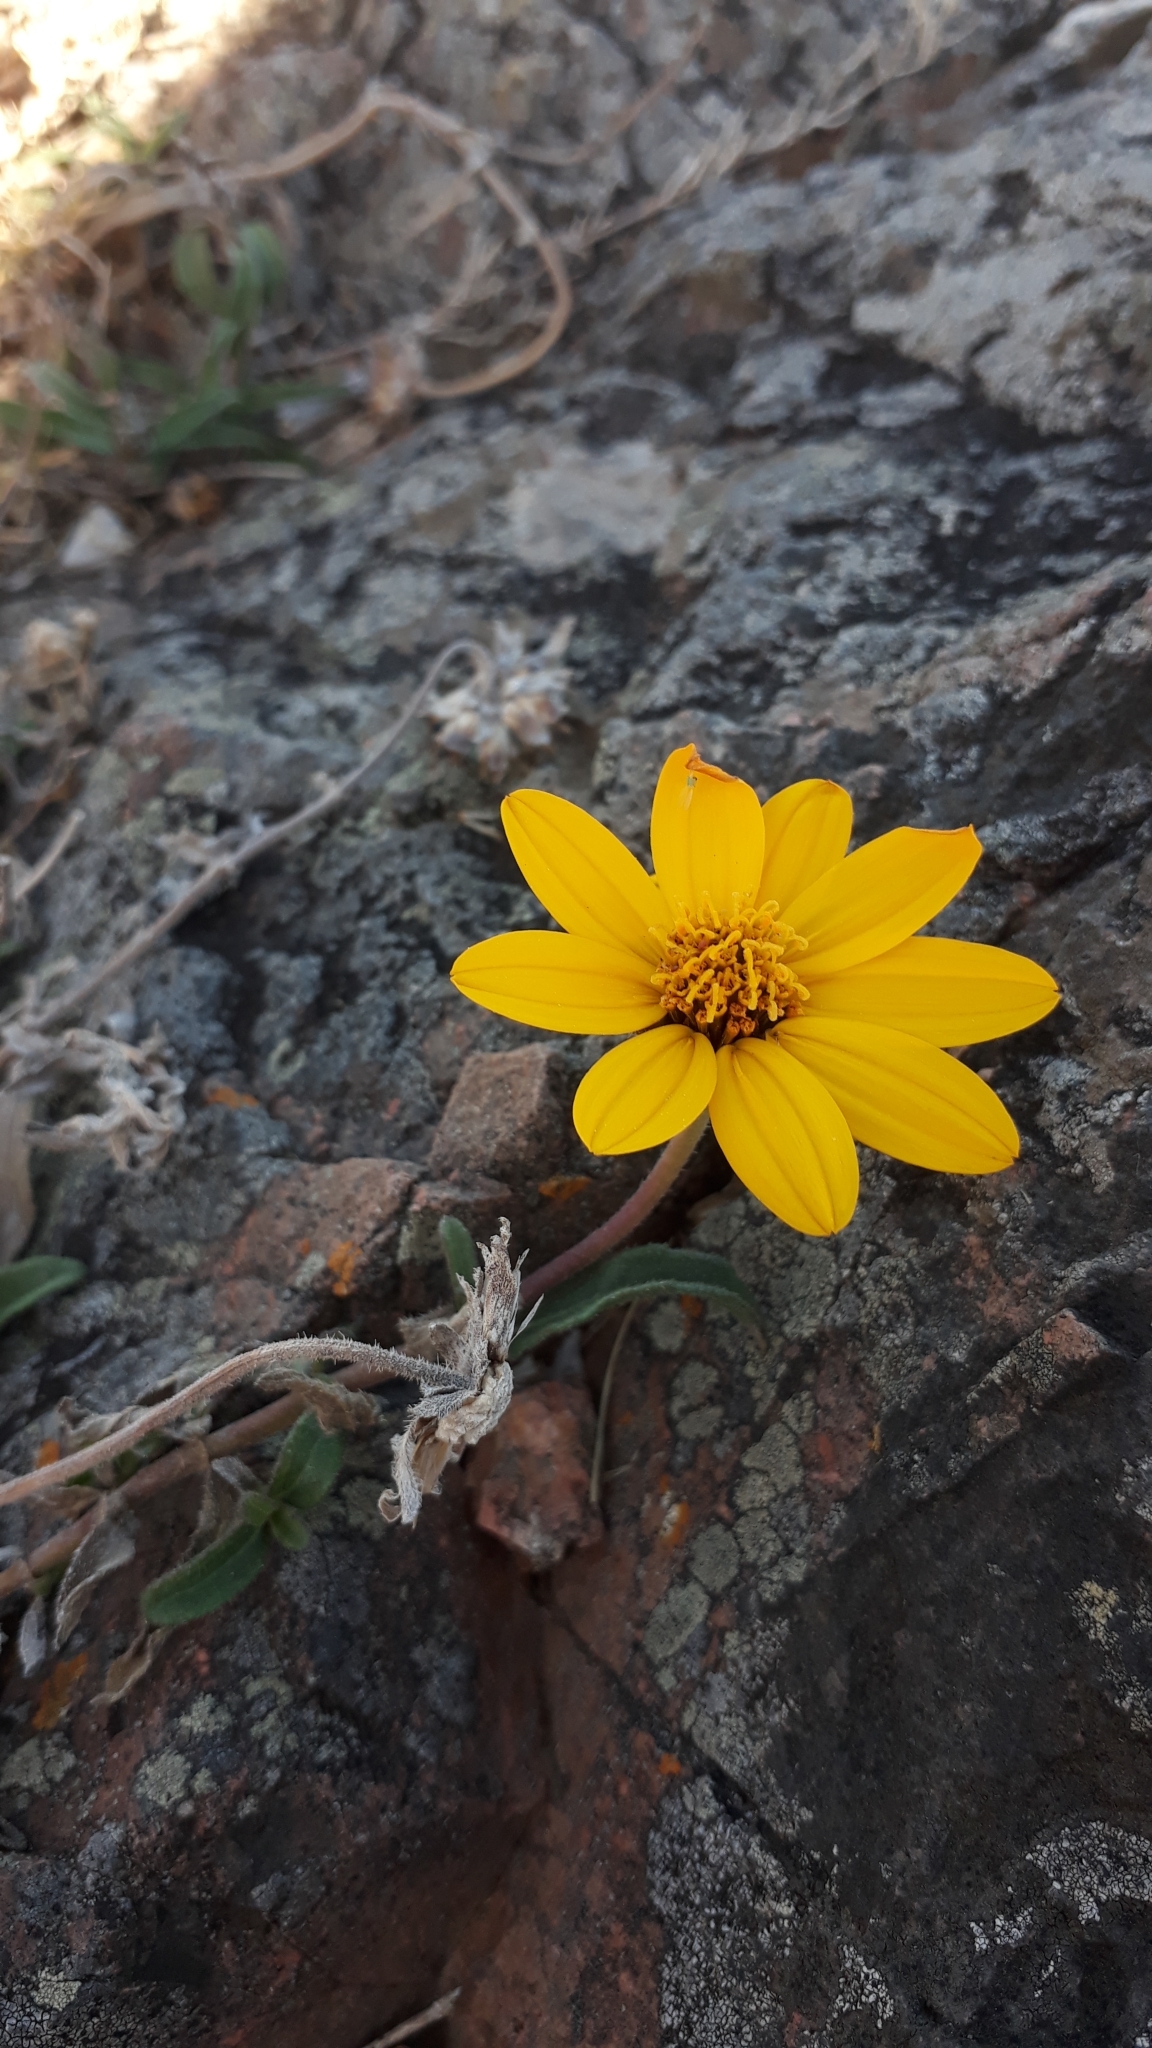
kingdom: Plantae
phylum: Tracheophyta
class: Magnoliopsida
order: Asterales
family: Asteraceae
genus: Wedelia
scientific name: Wedelia montevidensis
